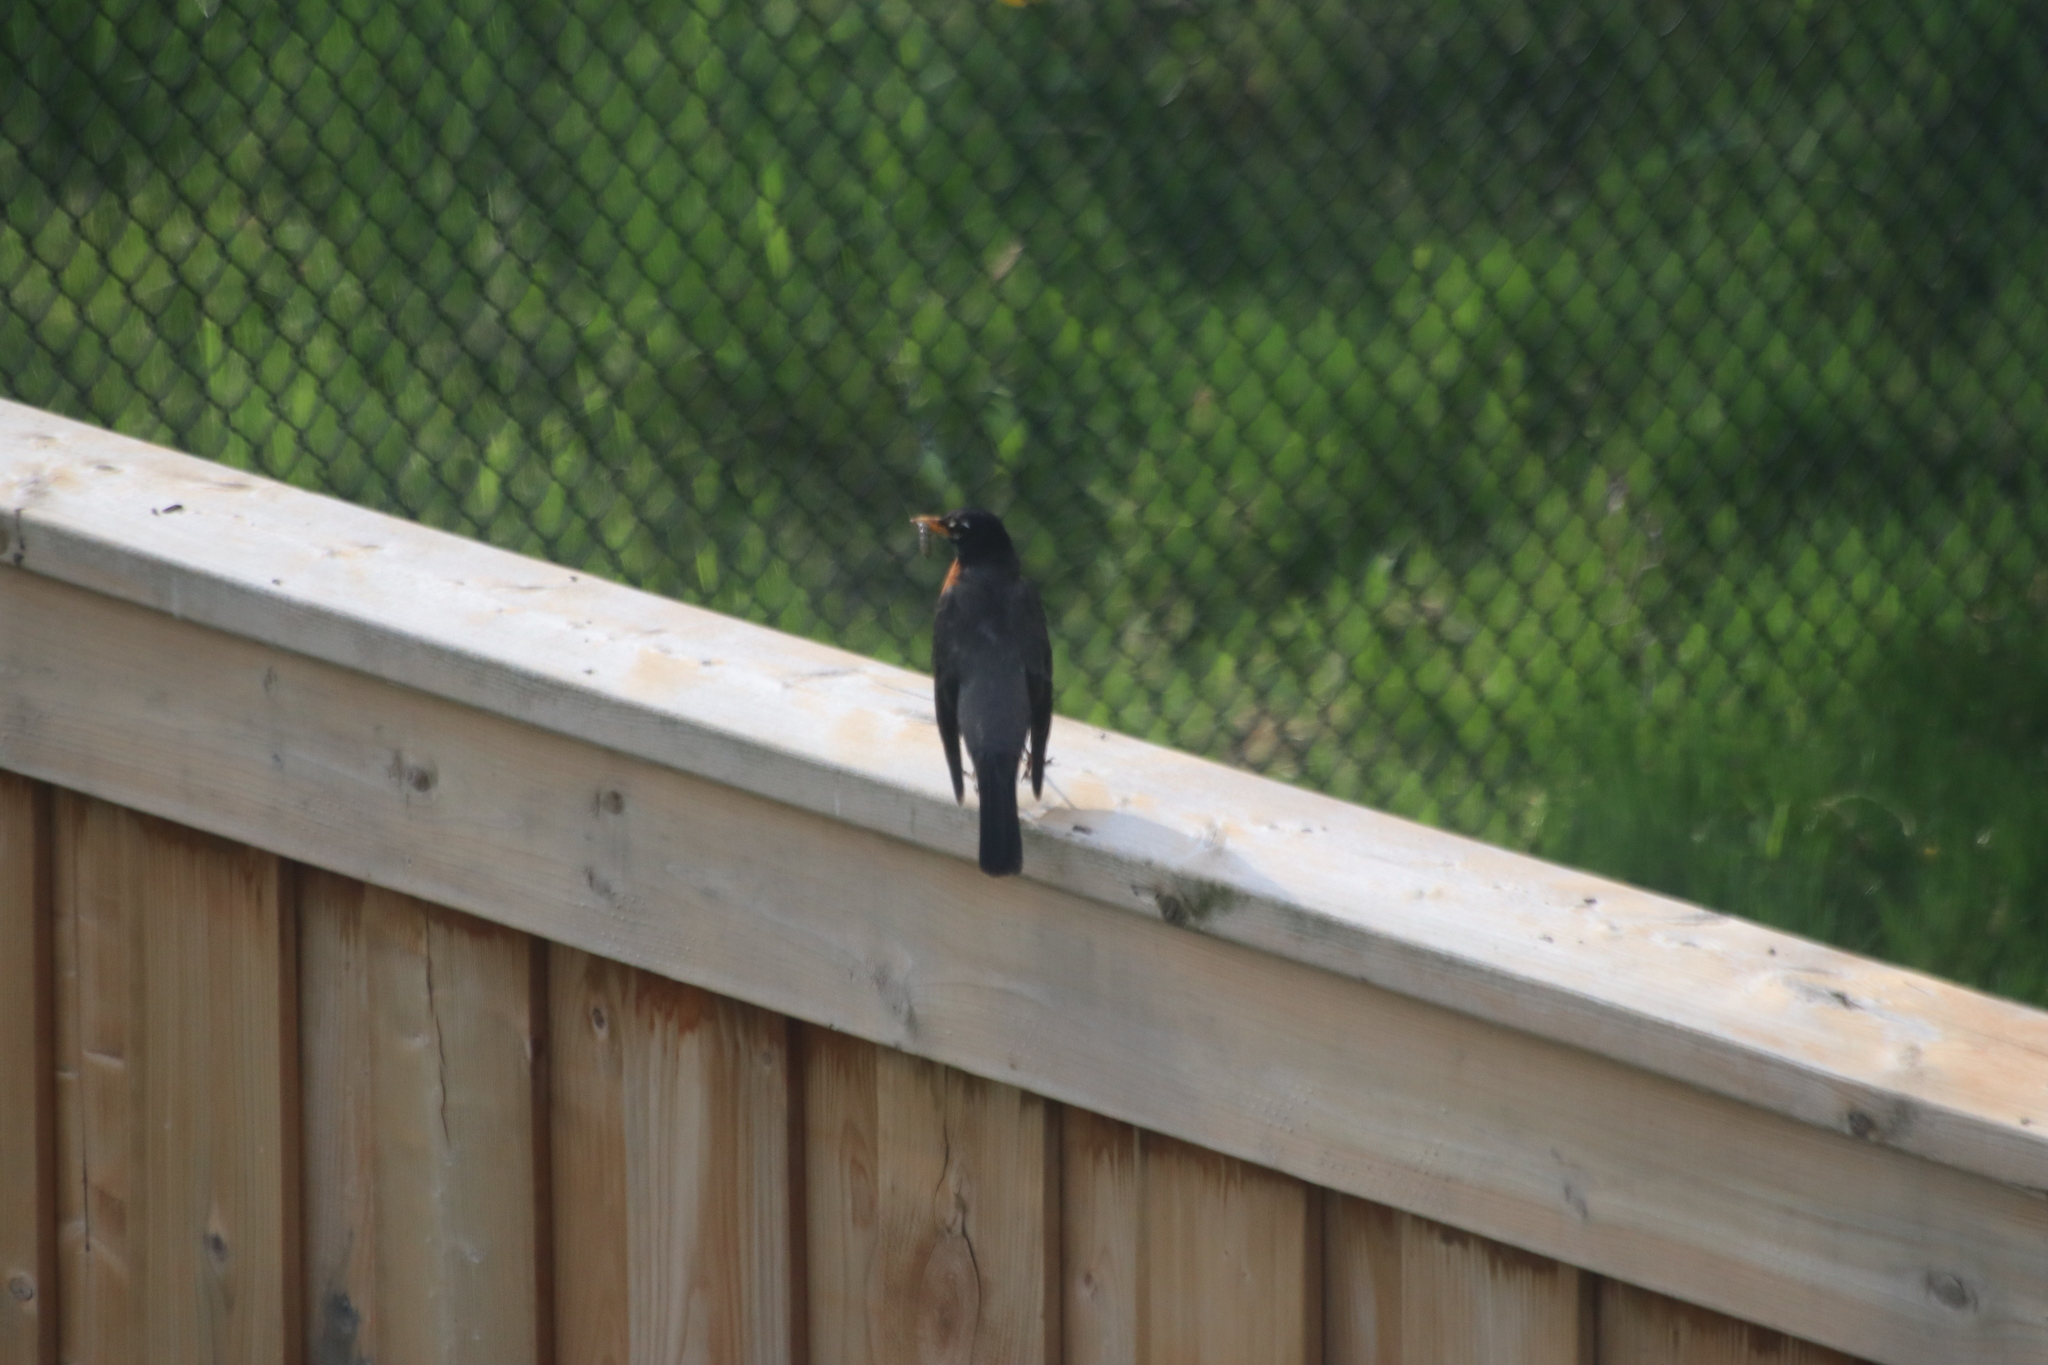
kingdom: Animalia
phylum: Chordata
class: Aves
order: Passeriformes
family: Turdidae
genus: Turdus
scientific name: Turdus migratorius
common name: American robin
